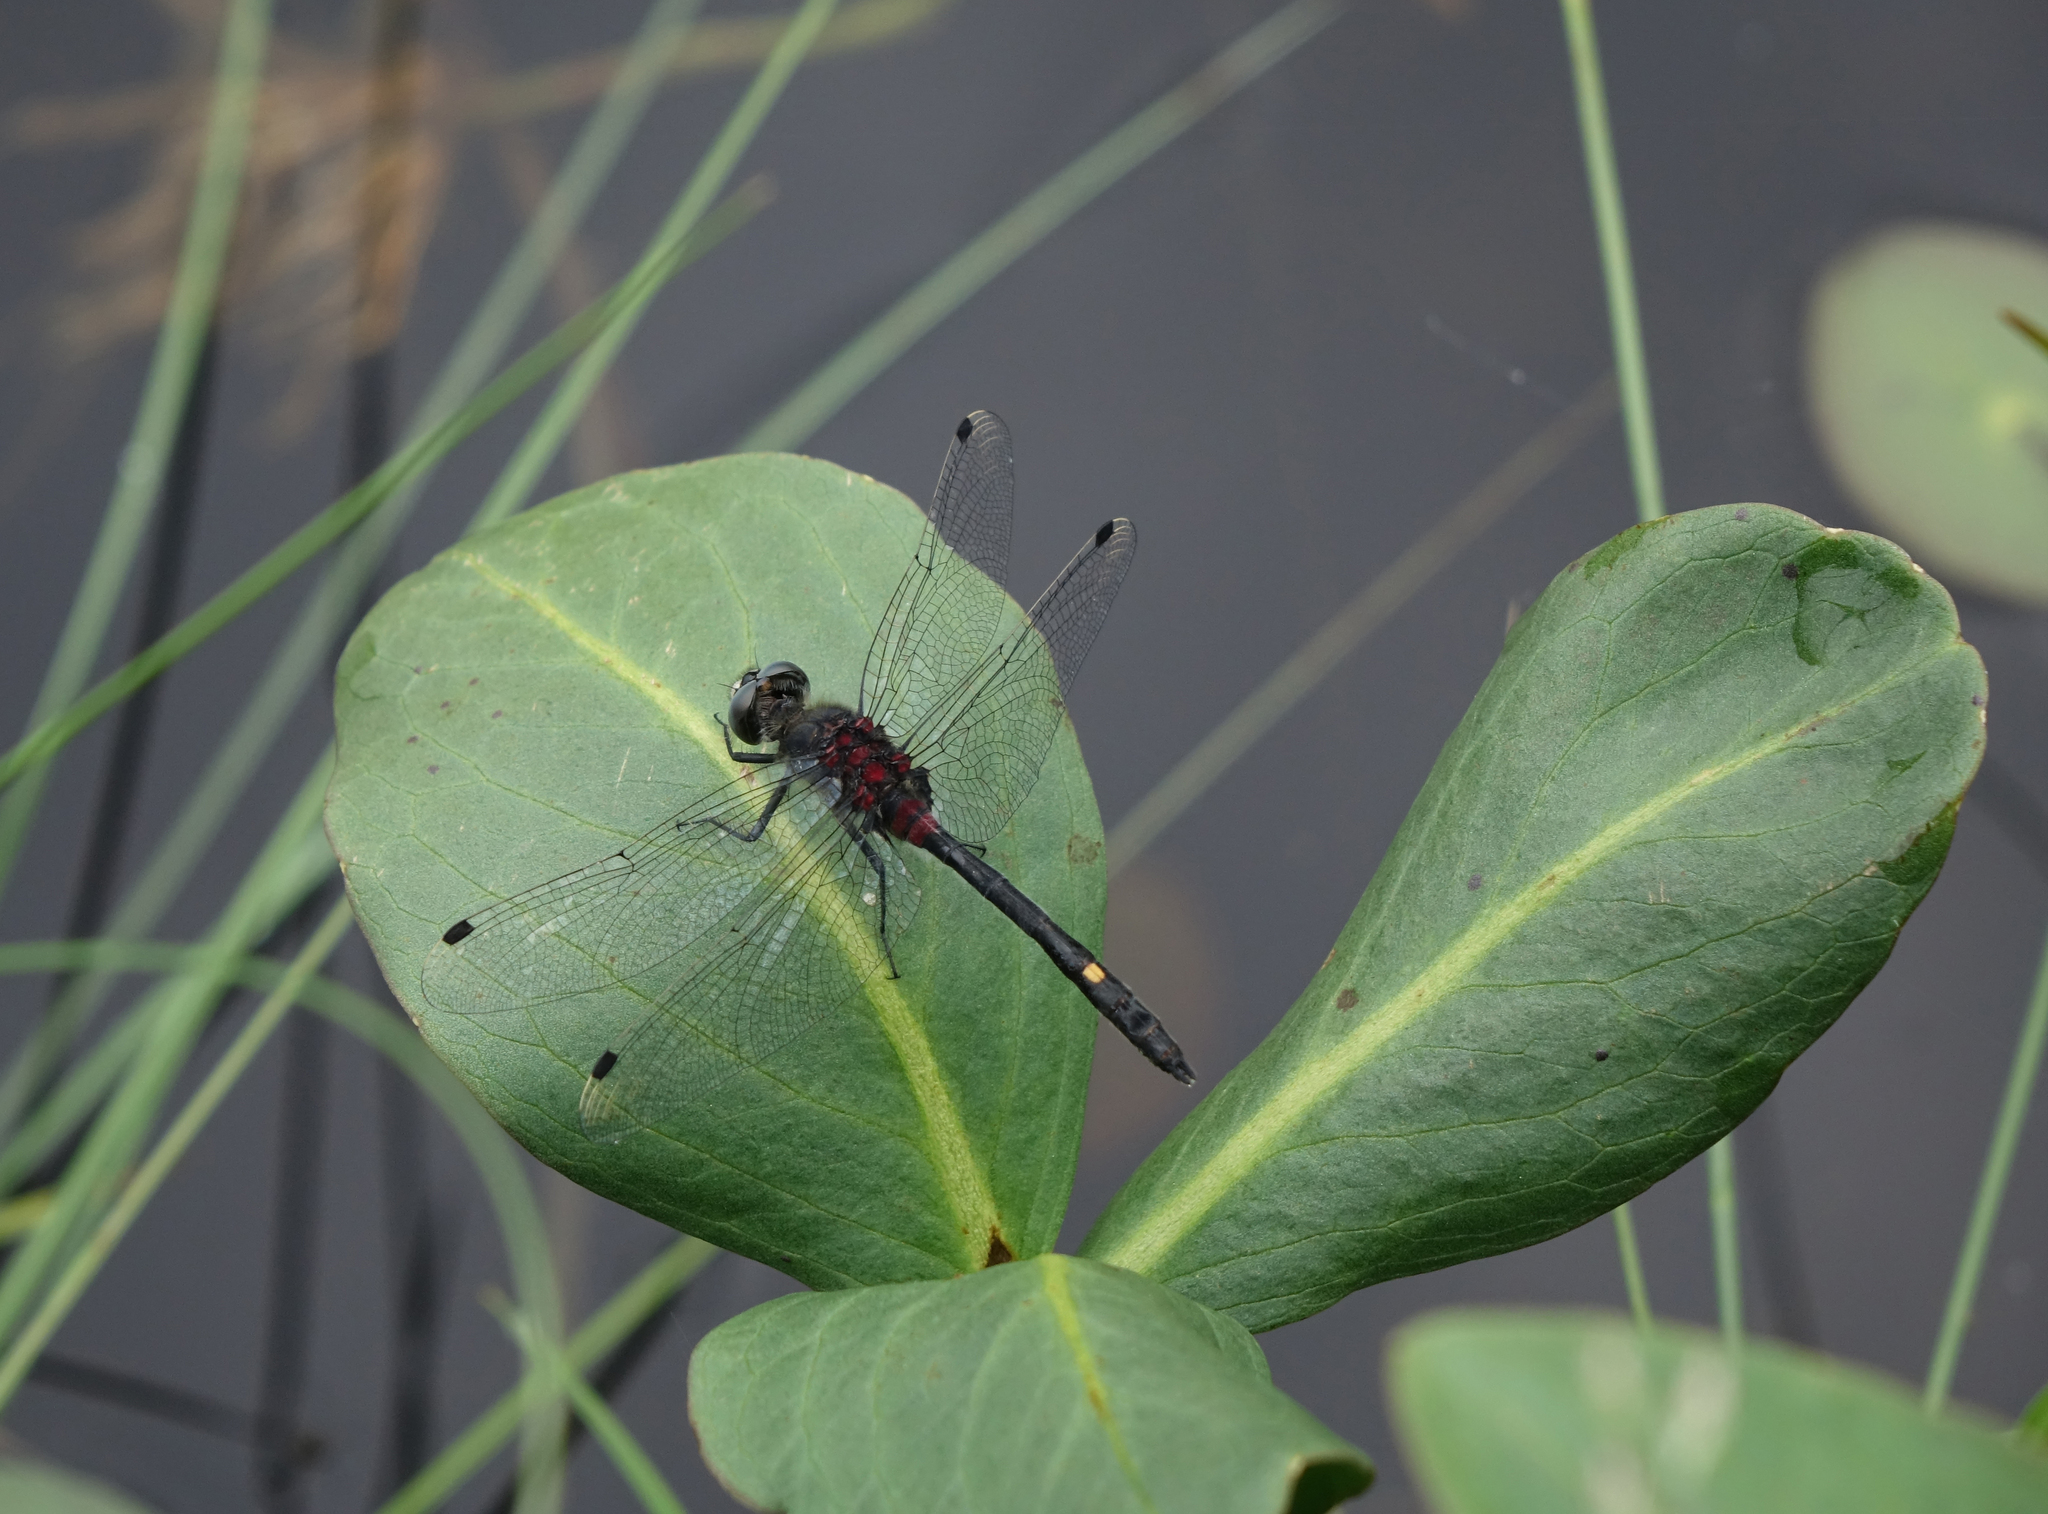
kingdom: Animalia
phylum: Arthropoda
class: Insecta
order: Odonata
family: Libellulidae
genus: Leucorrhinia
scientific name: Leucorrhinia orientalis
